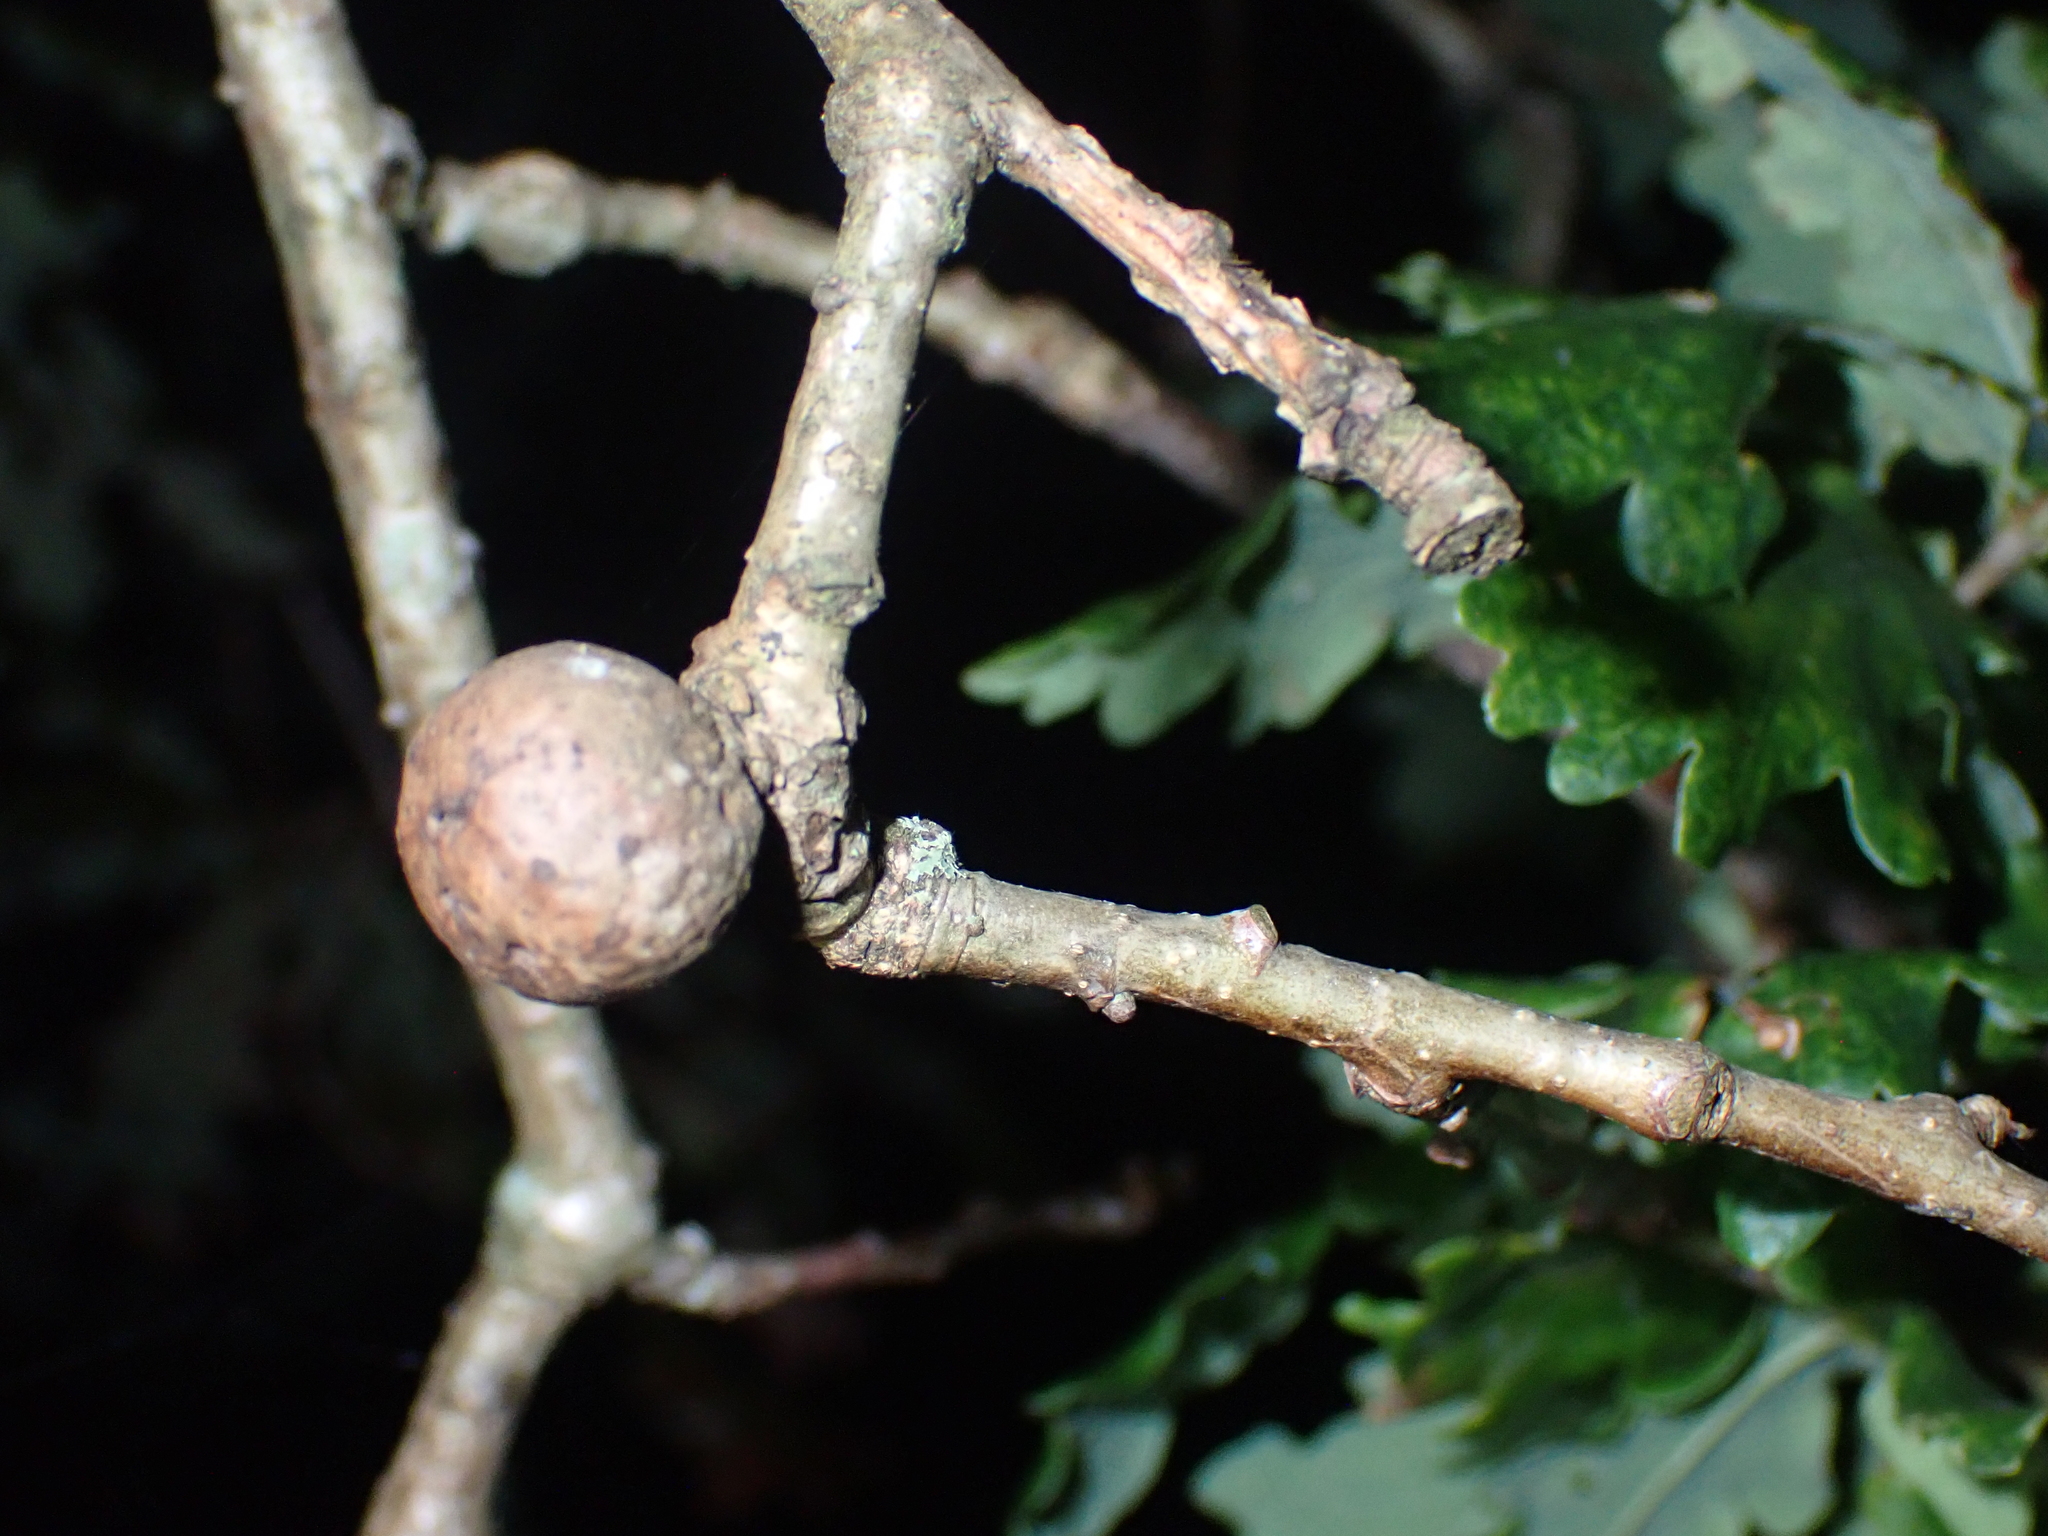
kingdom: Animalia
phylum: Arthropoda
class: Insecta
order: Hymenoptera
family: Cynipidae
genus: Andricus
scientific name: Andricus kollari
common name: Marble gall
